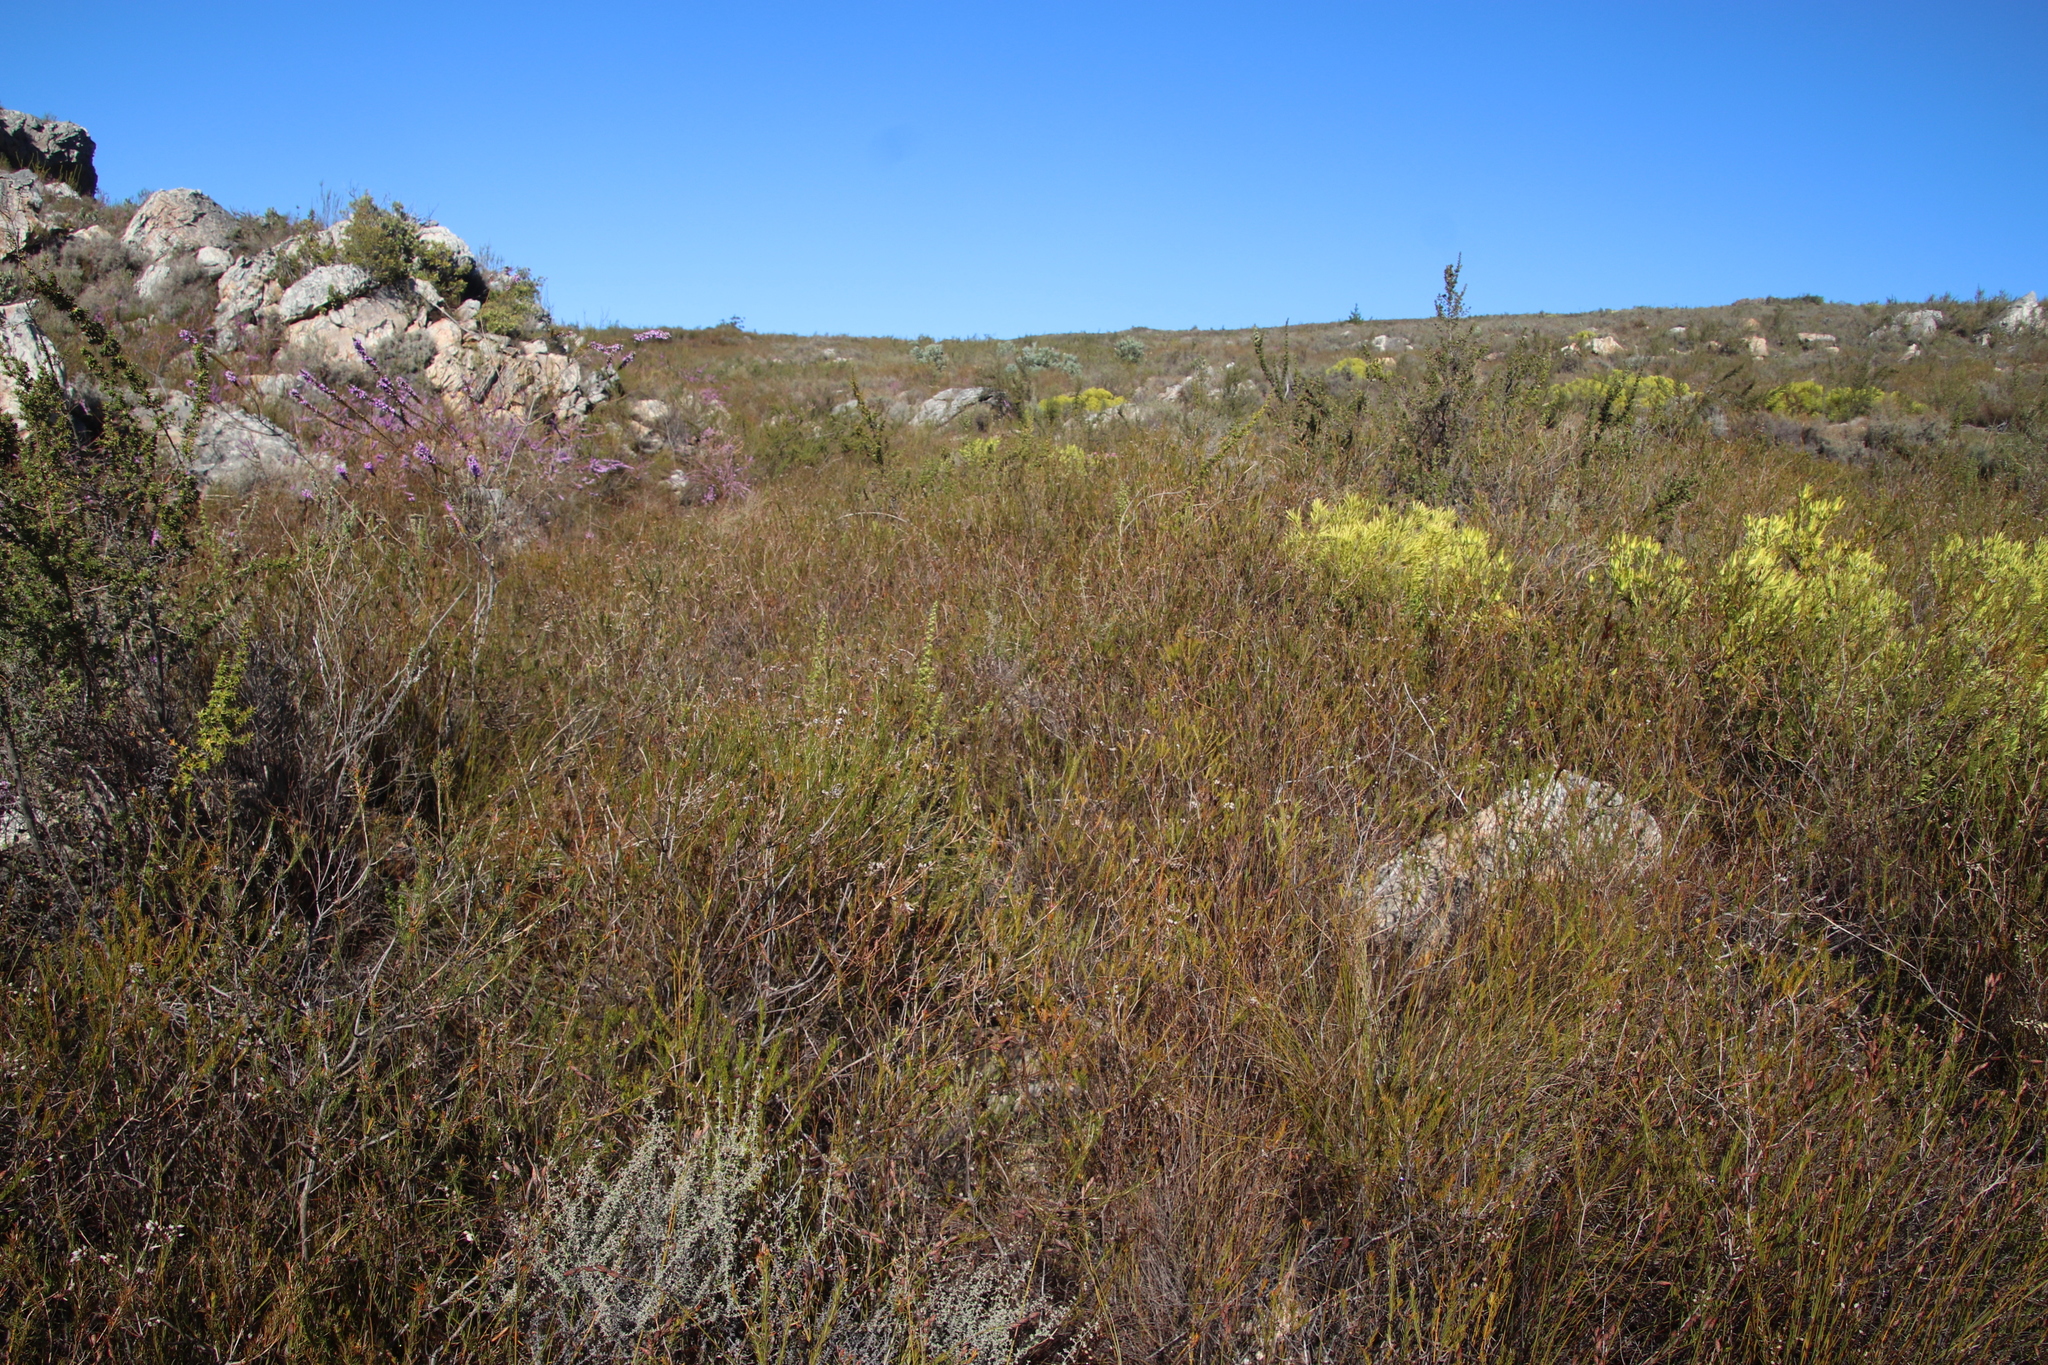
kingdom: Plantae
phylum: Tracheophyta
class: Magnoliopsida
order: Ericales
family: Ericaceae
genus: Erica
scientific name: Erica inflata
